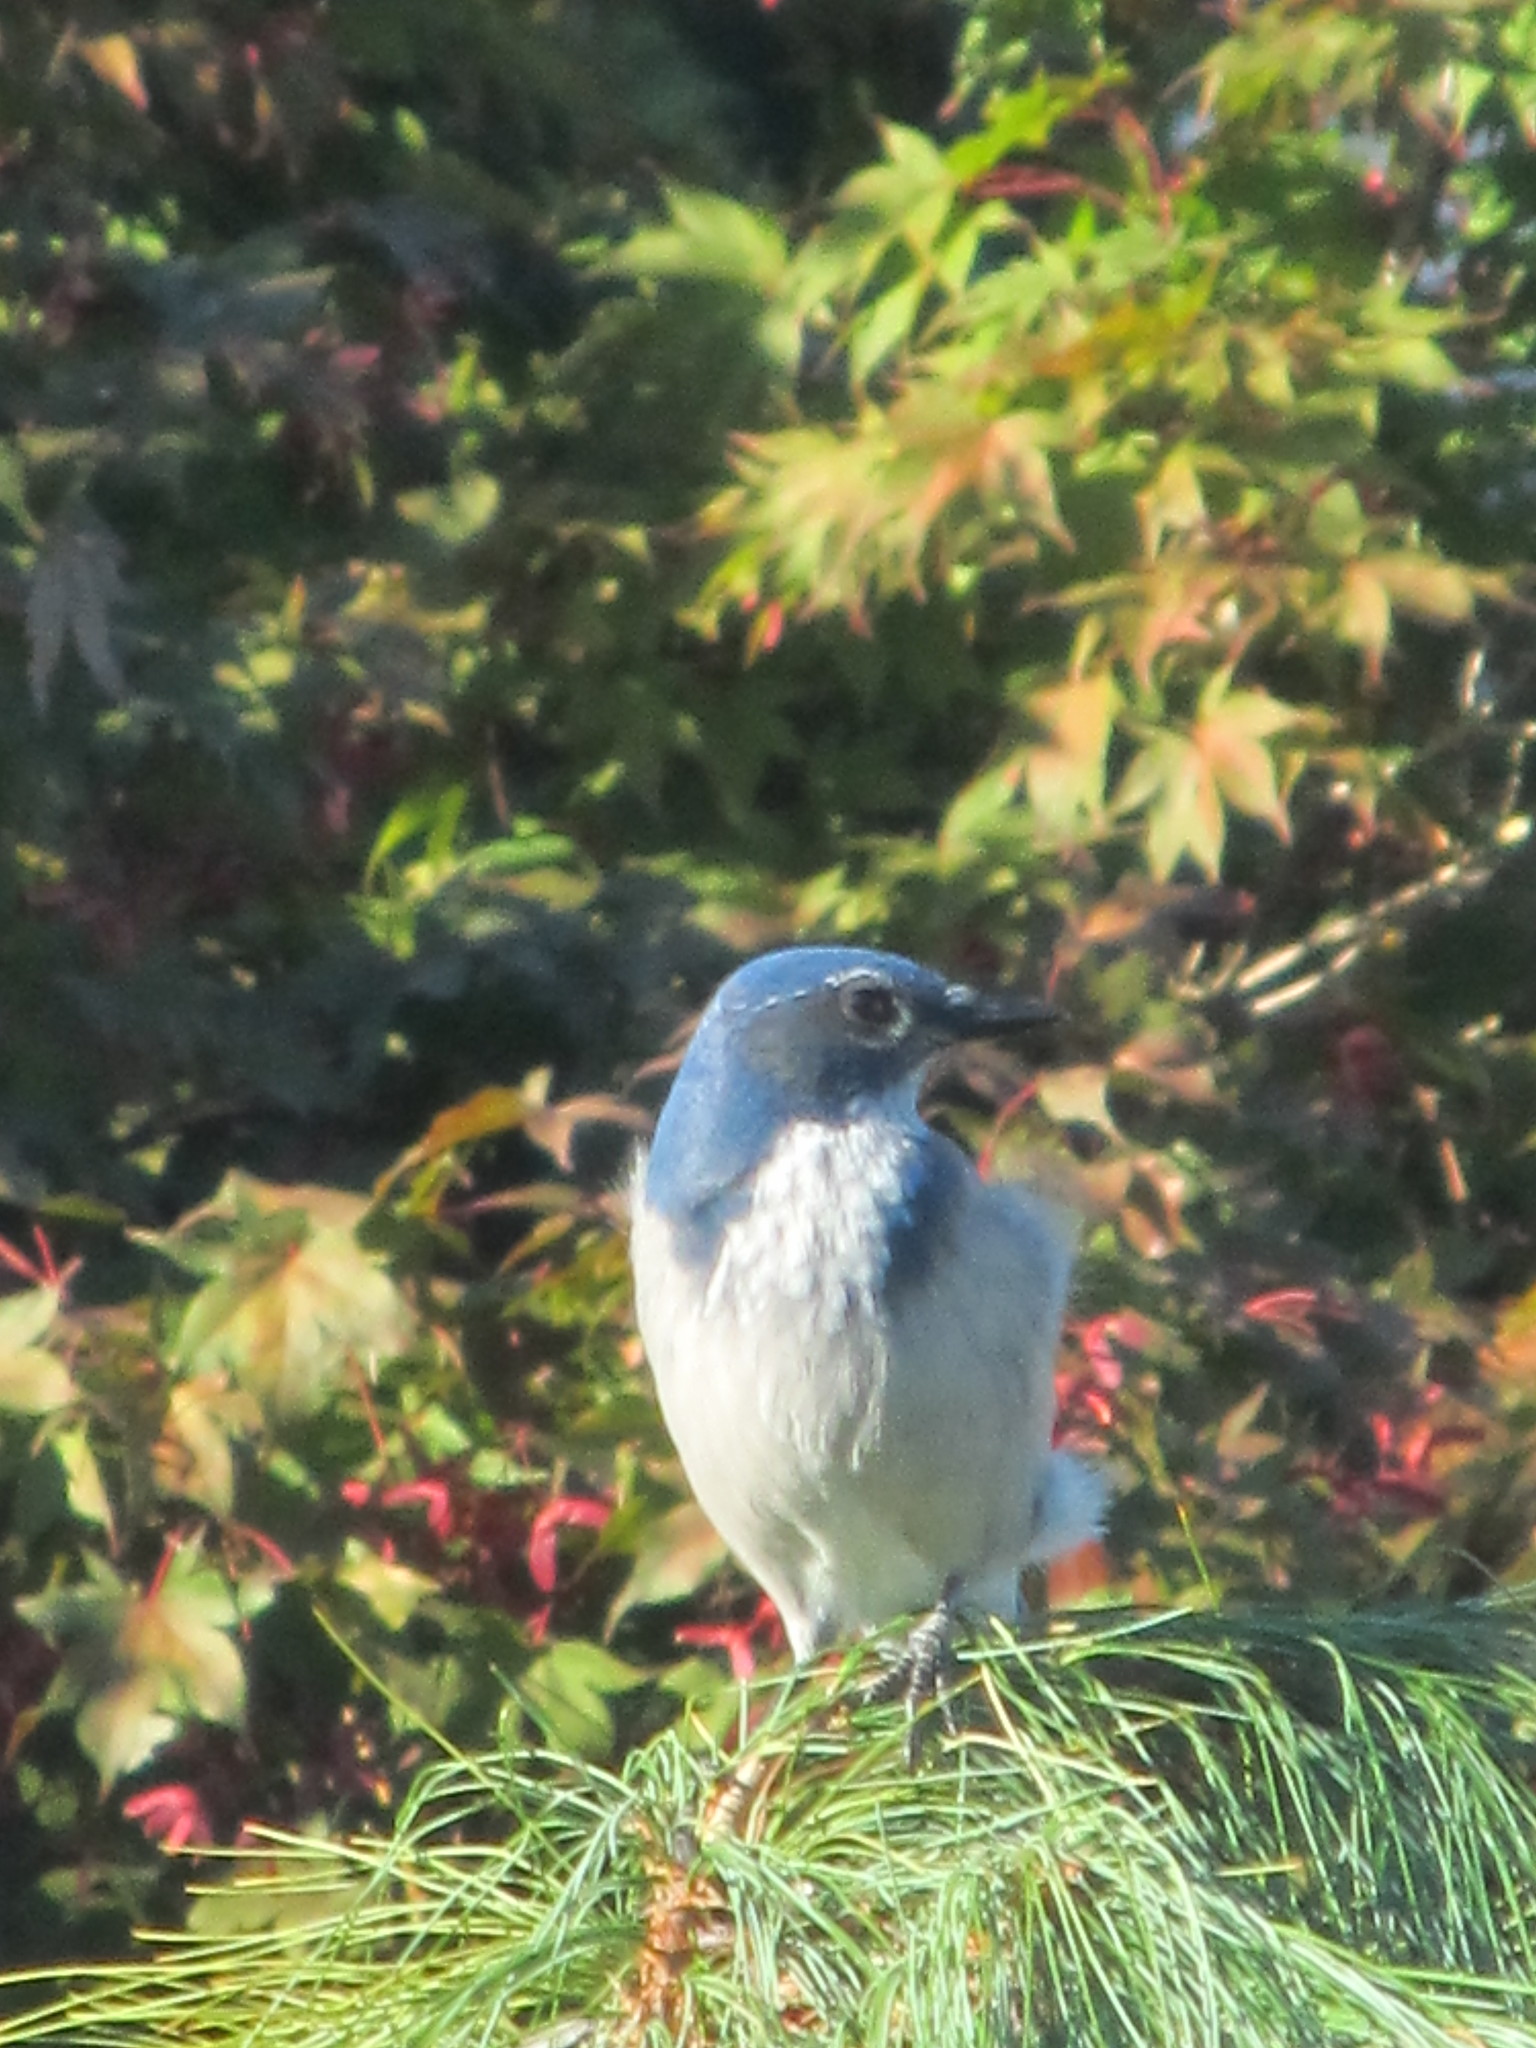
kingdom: Animalia
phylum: Chordata
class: Aves
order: Passeriformes
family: Corvidae
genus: Aphelocoma
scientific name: Aphelocoma californica
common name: California scrub-jay
